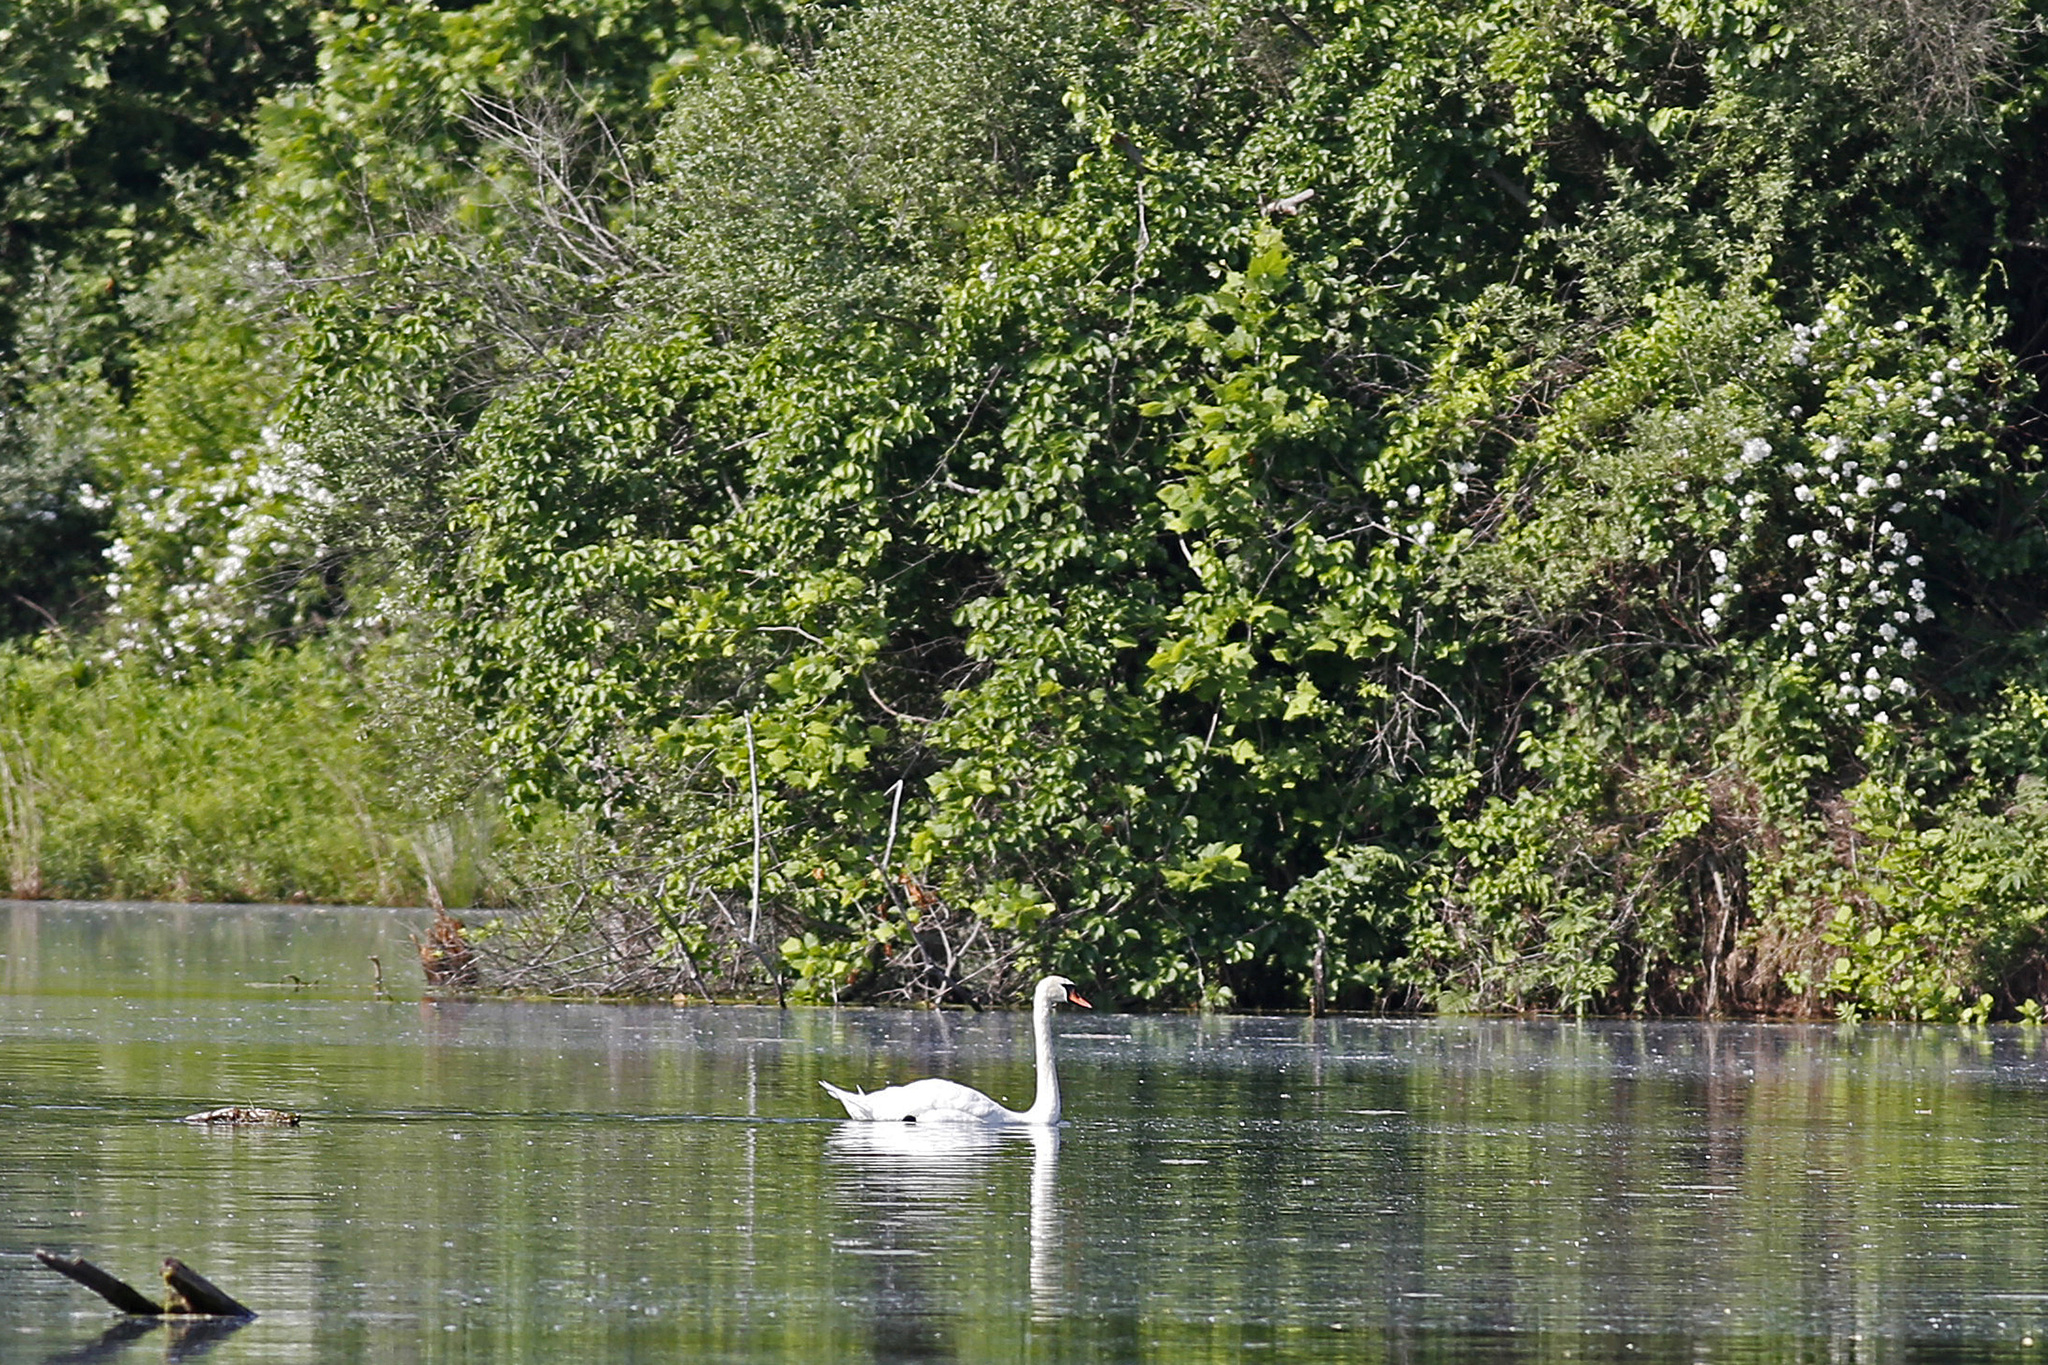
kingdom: Animalia
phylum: Chordata
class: Aves
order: Anseriformes
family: Anatidae
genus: Cygnus
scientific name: Cygnus olor
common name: Mute swan
